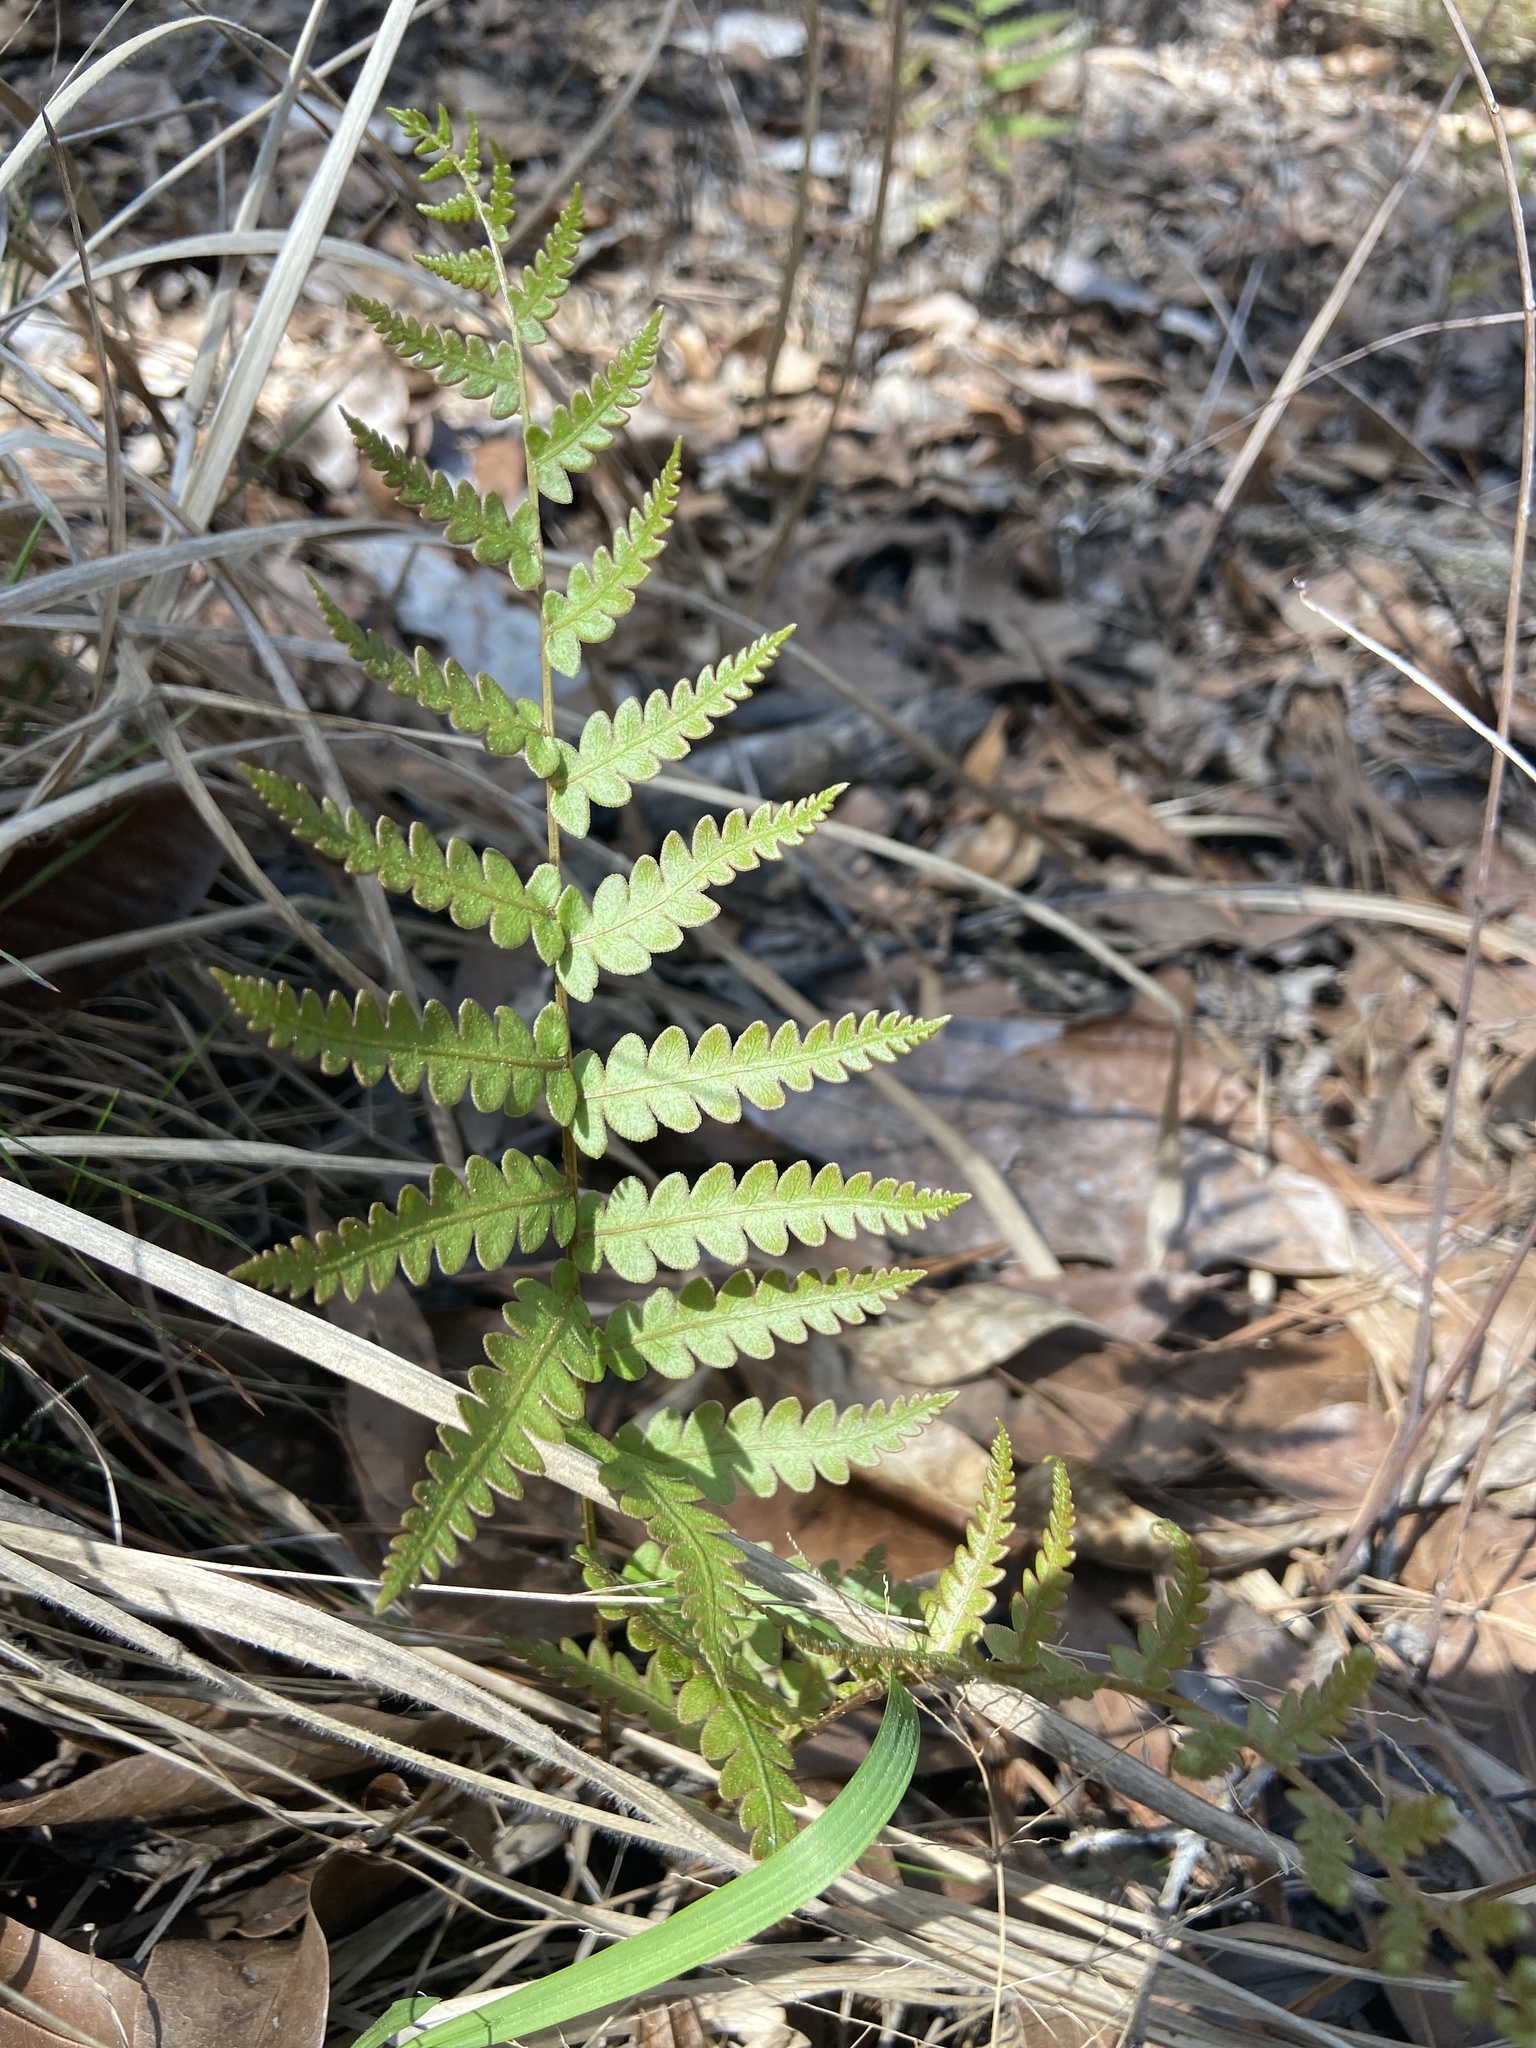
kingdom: Plantae
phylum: Tracheophyta
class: Polypodiopsida
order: Polypodiales
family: Blechnaceae
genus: Anchistea
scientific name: Anchistea virginica
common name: Virginia chain fern
